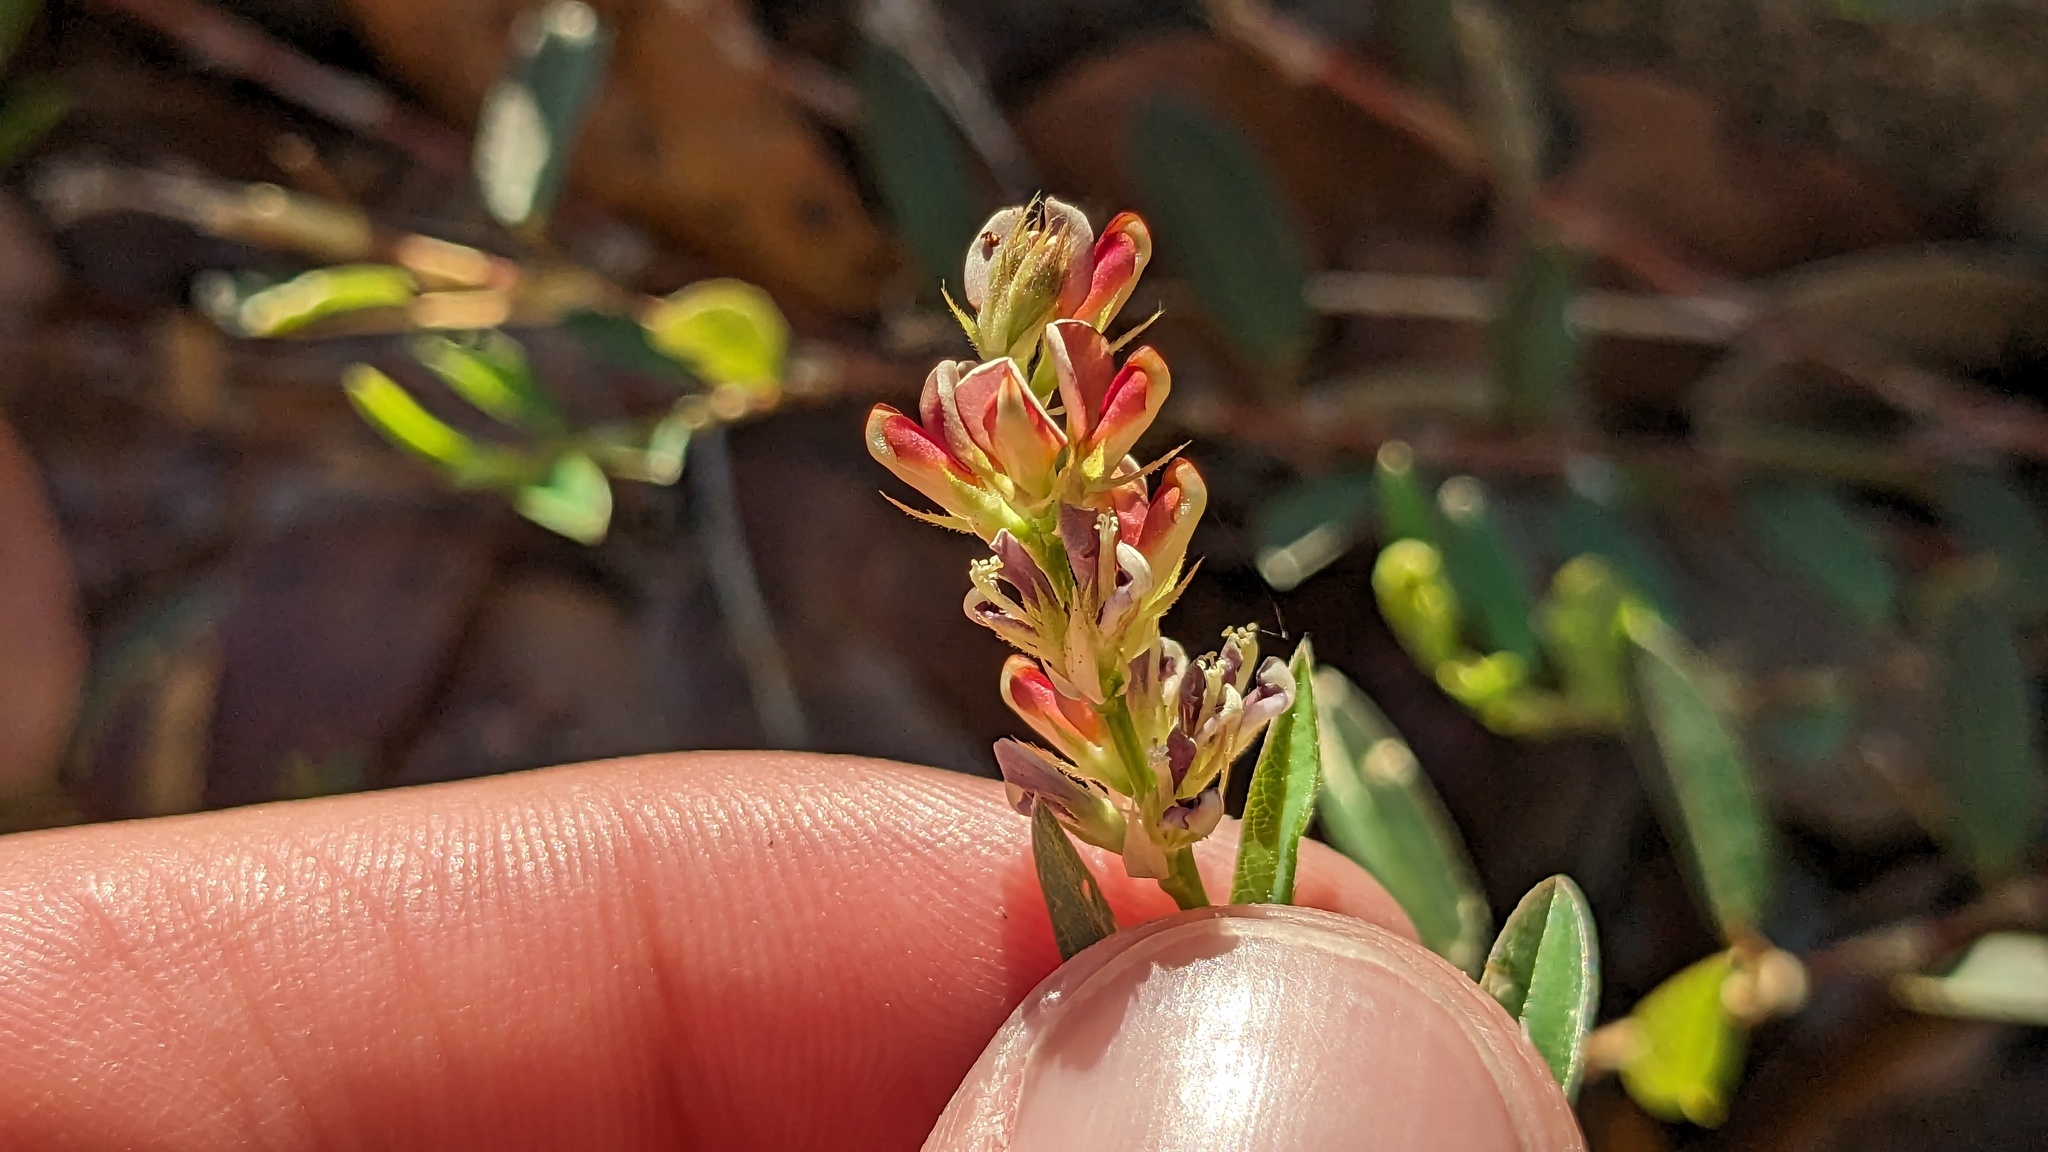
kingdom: Plantae
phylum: Tracheophyta
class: Magnoliopsida
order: Fabales
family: Fabaceae
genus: Alysicarpus
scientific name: Alysicarpus vaginalis
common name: White moneywort
